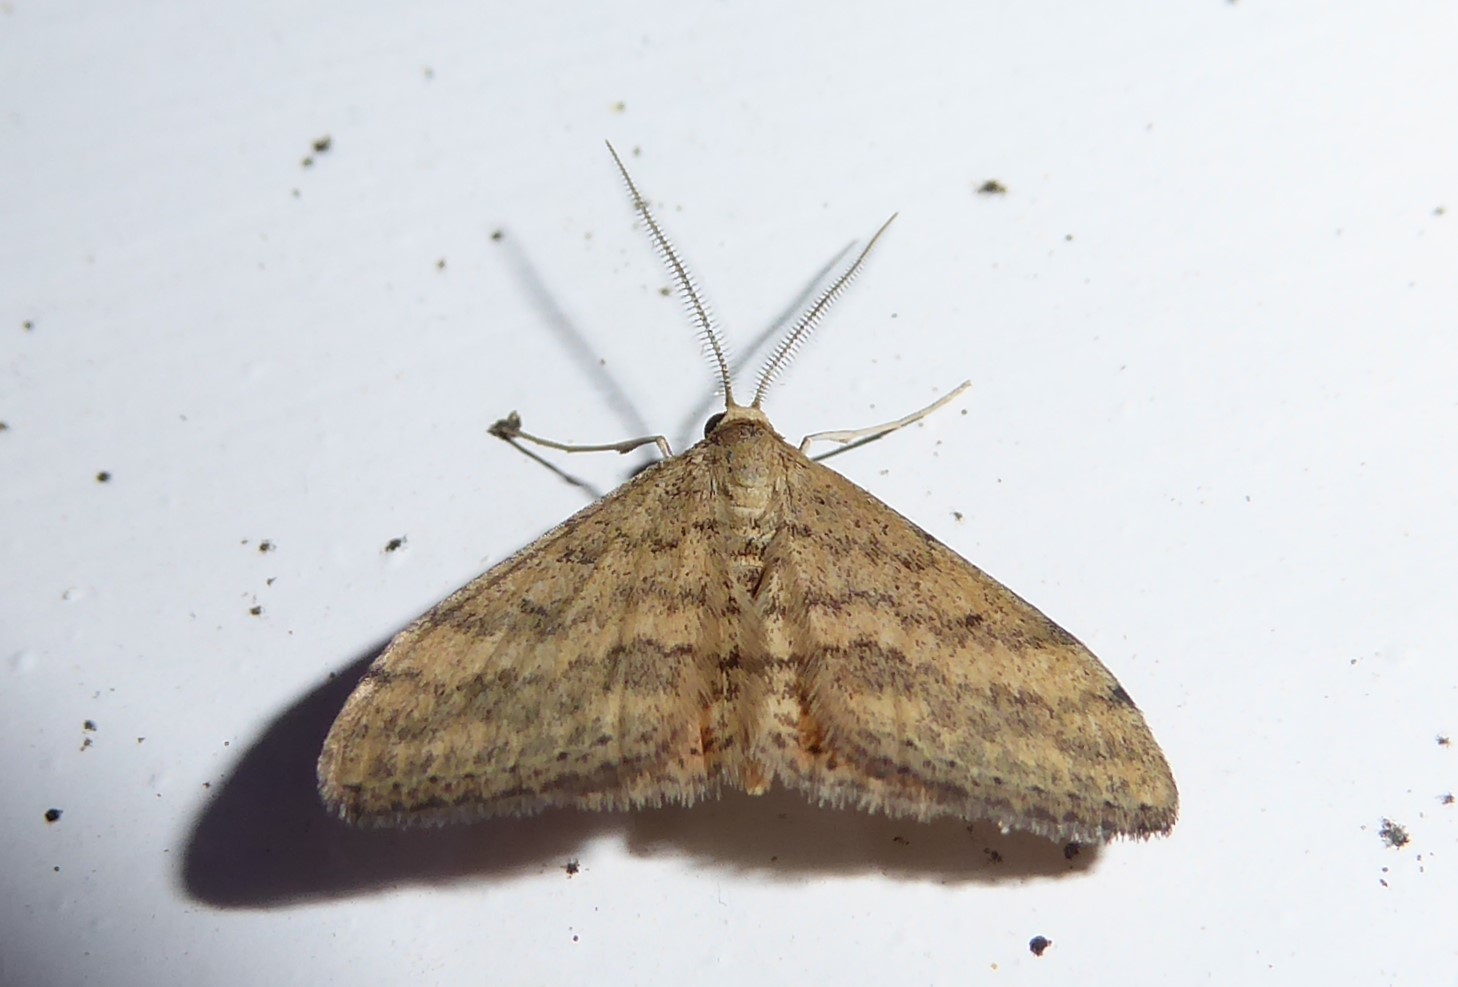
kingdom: Animalia
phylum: Arthropoda
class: Insecta
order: Lepidoptera
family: Geometridae
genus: Scopula
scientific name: Scopula rubraria
